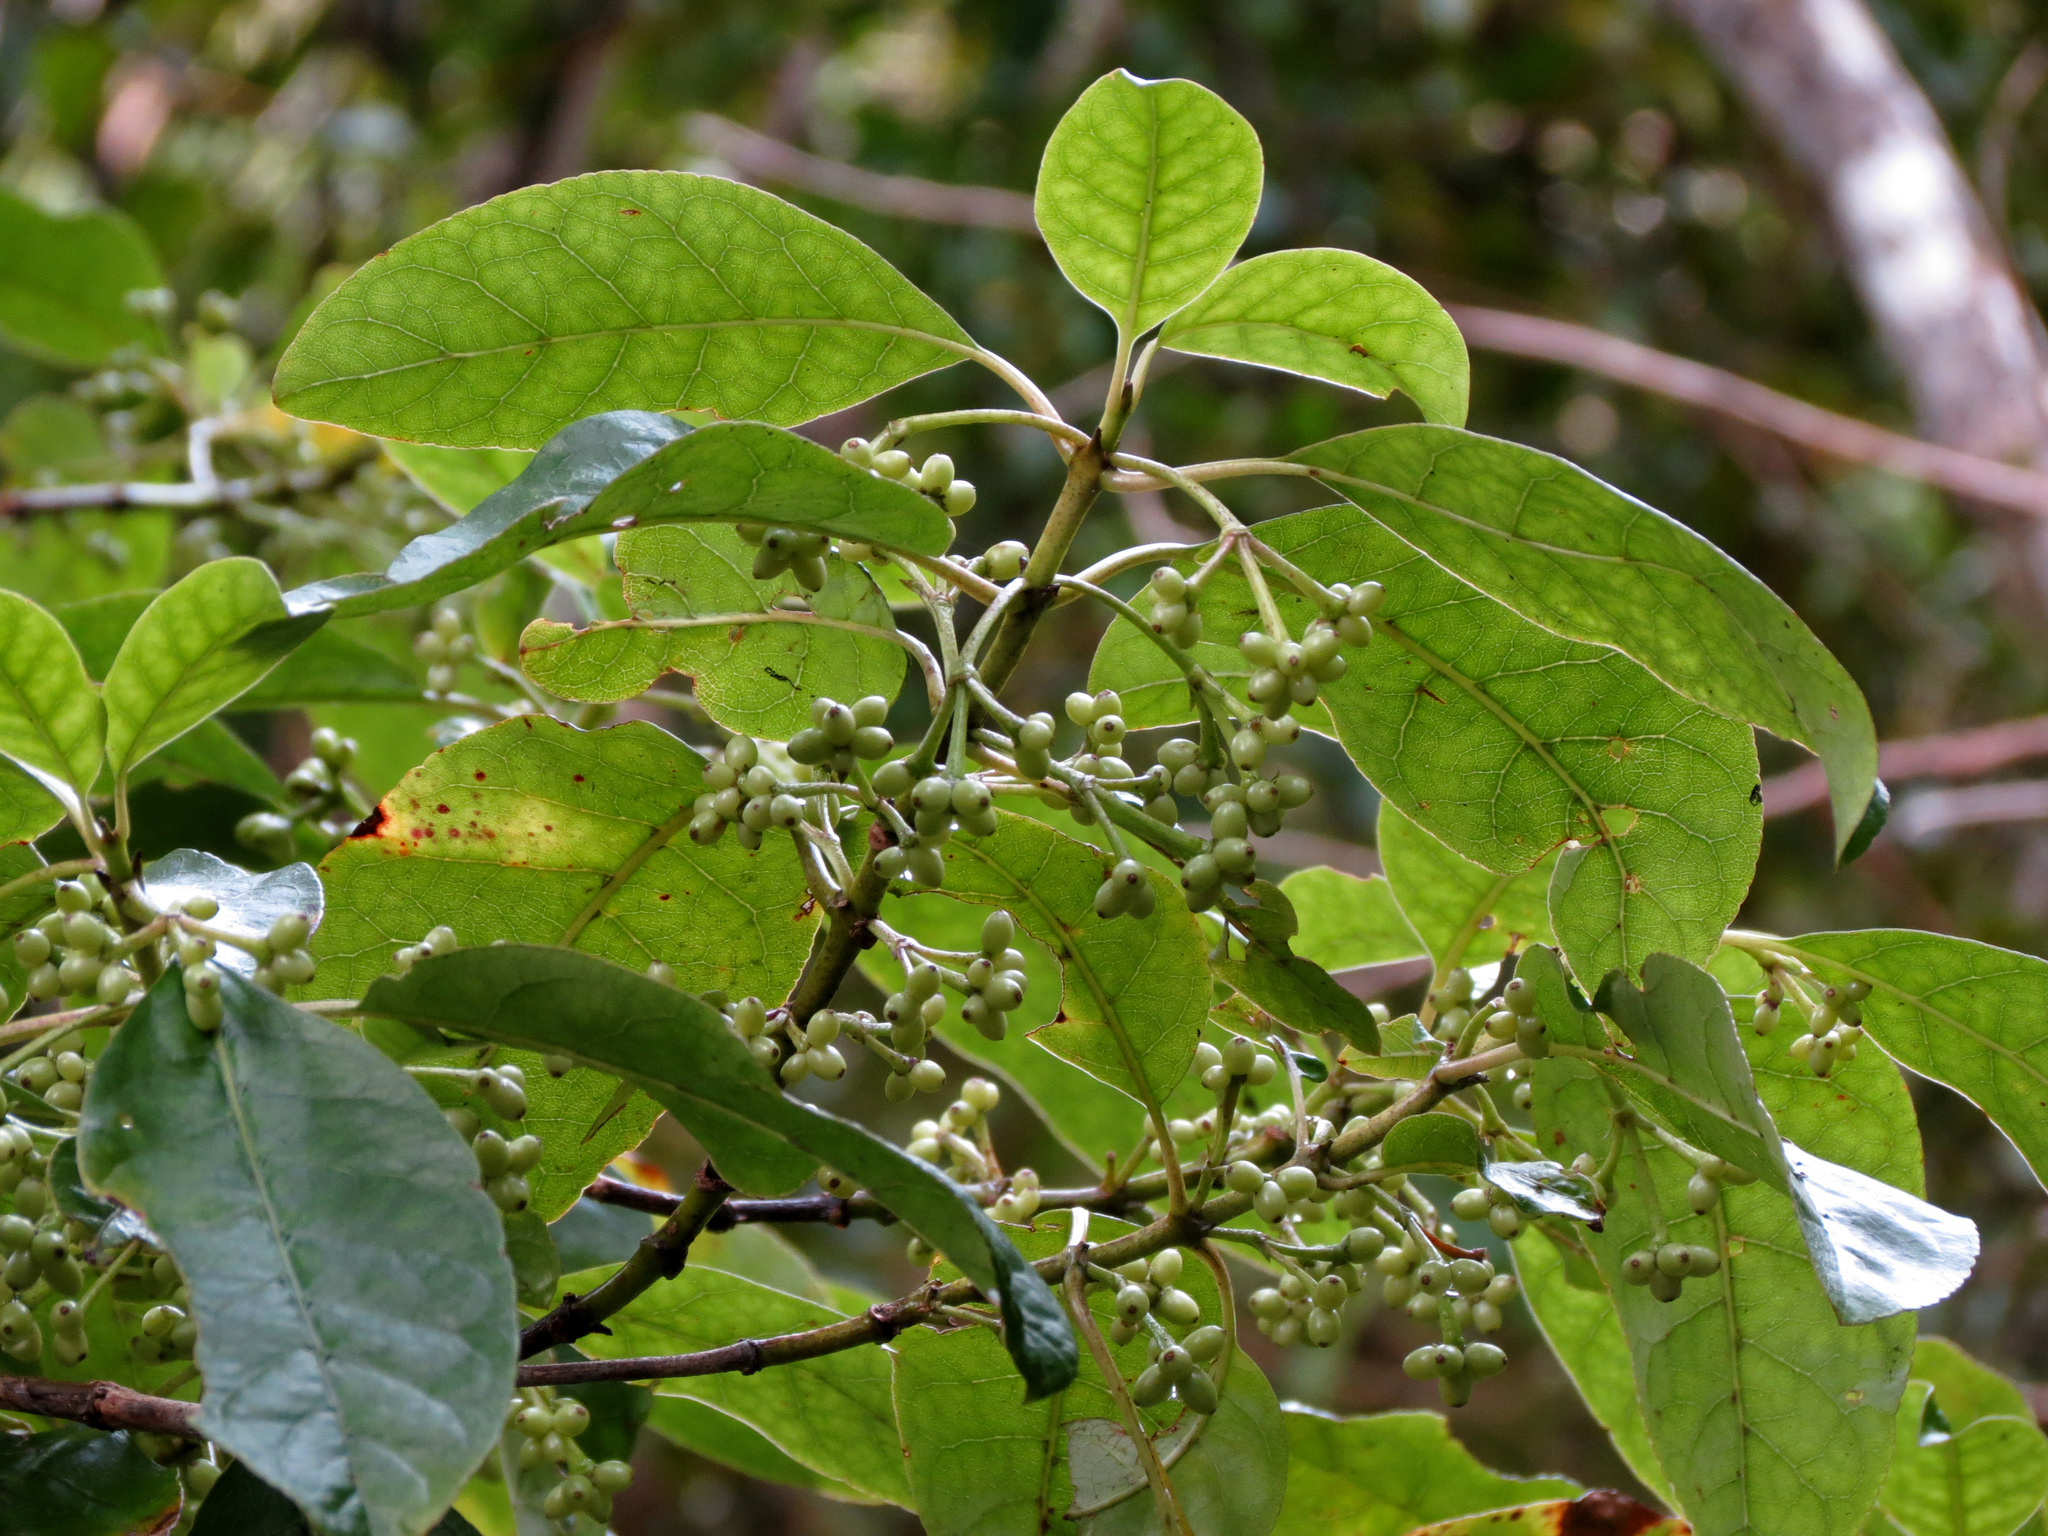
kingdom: Plantae
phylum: Tracheophyta
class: Magnoliopsida
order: Gentianales
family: Rubiaceae
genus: Coprosma
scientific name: Coprosma autumnalis
